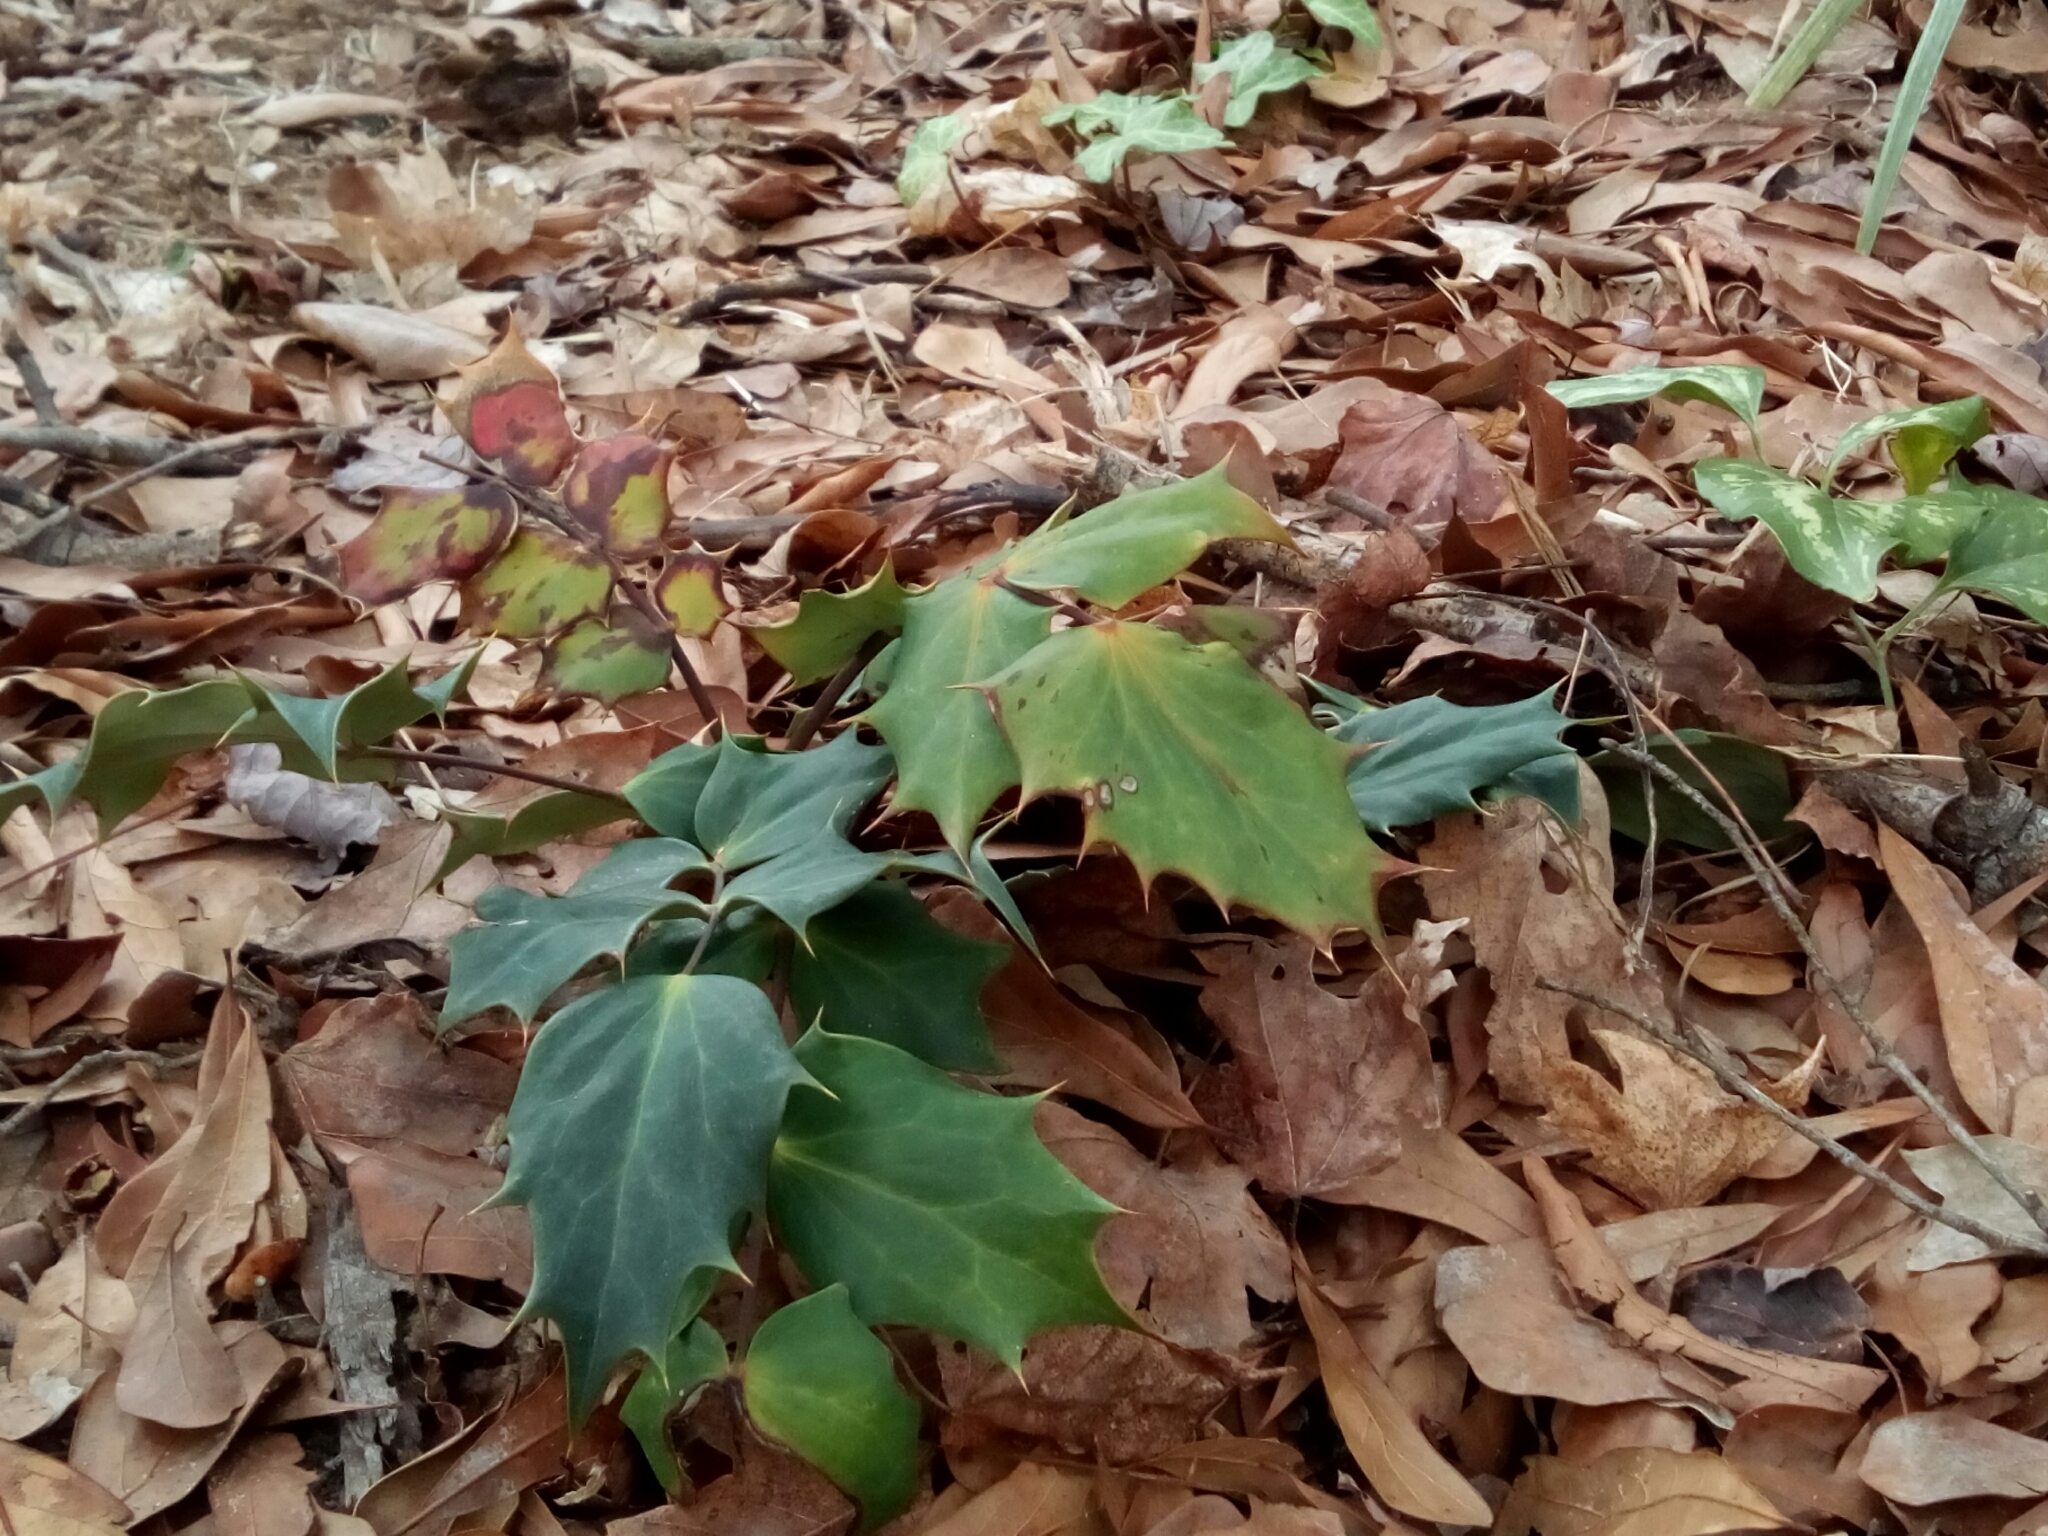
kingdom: Plantae
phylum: Tracheophyta
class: Magnoliopsida
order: Ranunculales
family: Berberidaceae
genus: Mahonia
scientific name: Mahonia bealei
